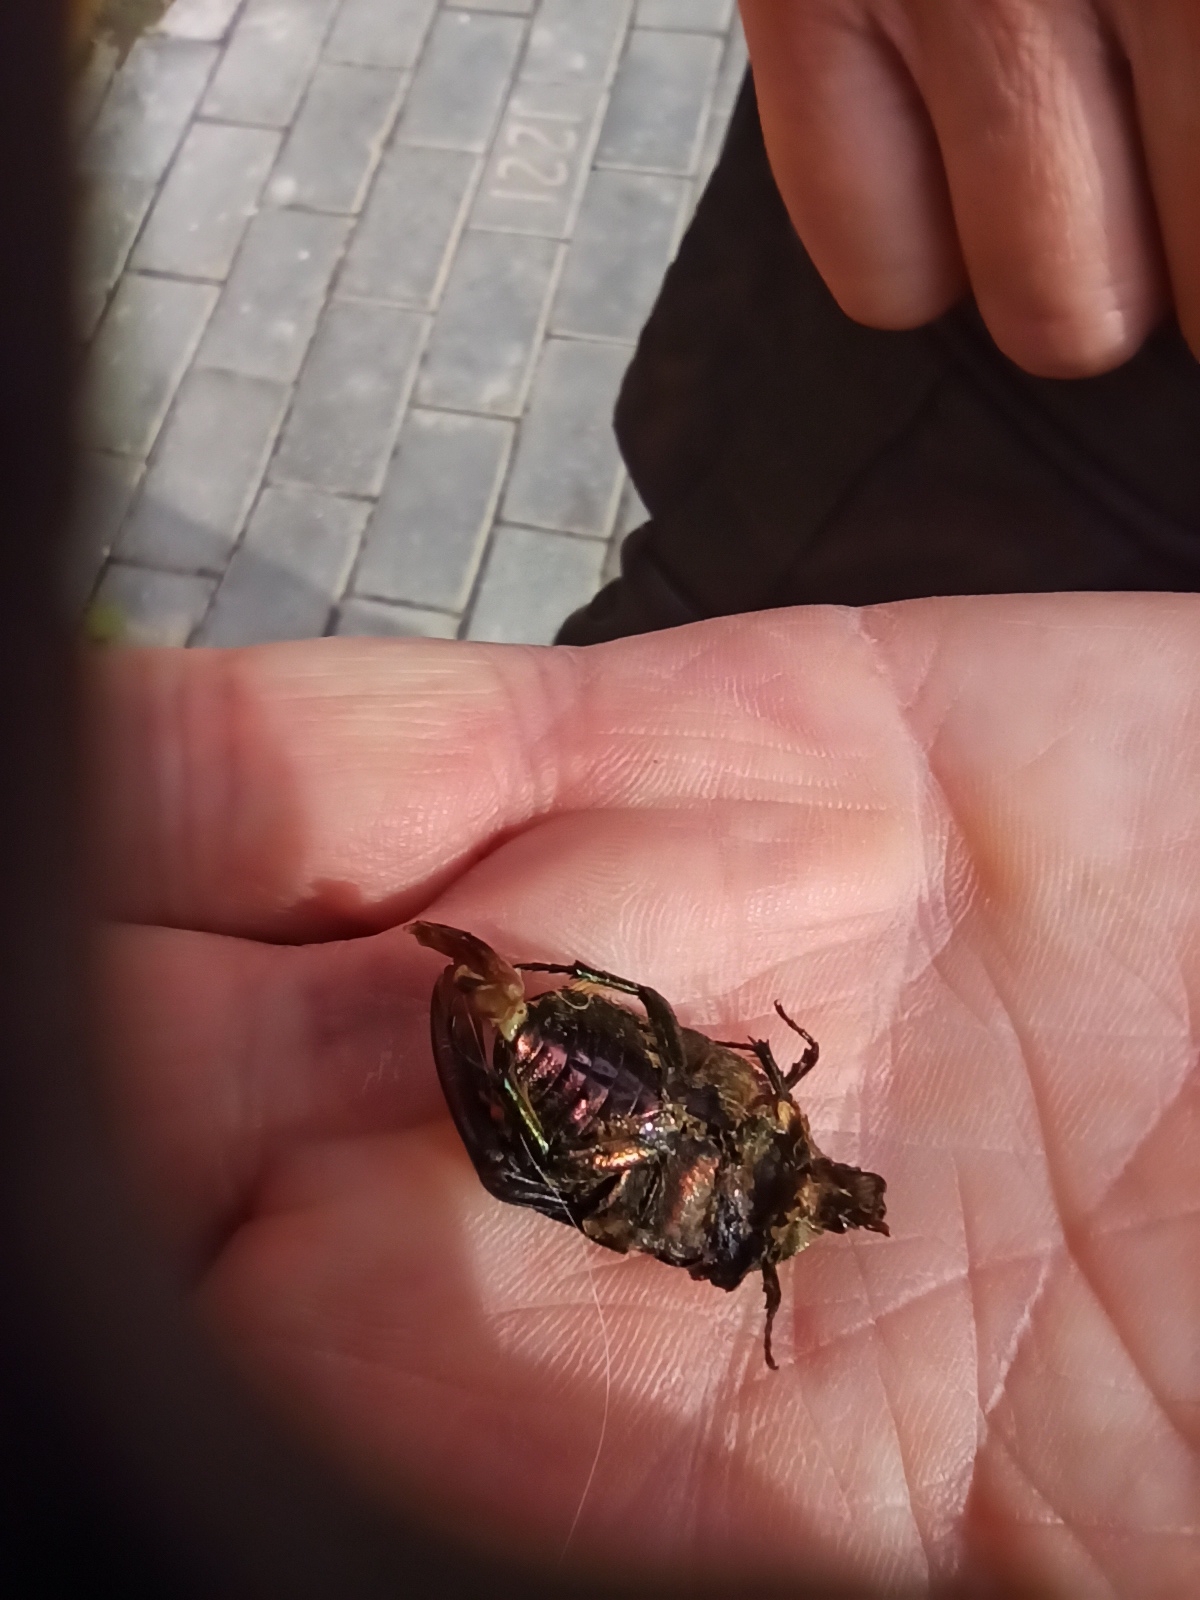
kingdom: Animalia
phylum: Arthropoda
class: Insecta
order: Coleoptera
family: Scarabaeidae
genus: Cetonia
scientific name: Cetonia aurata
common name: Rose chafer
